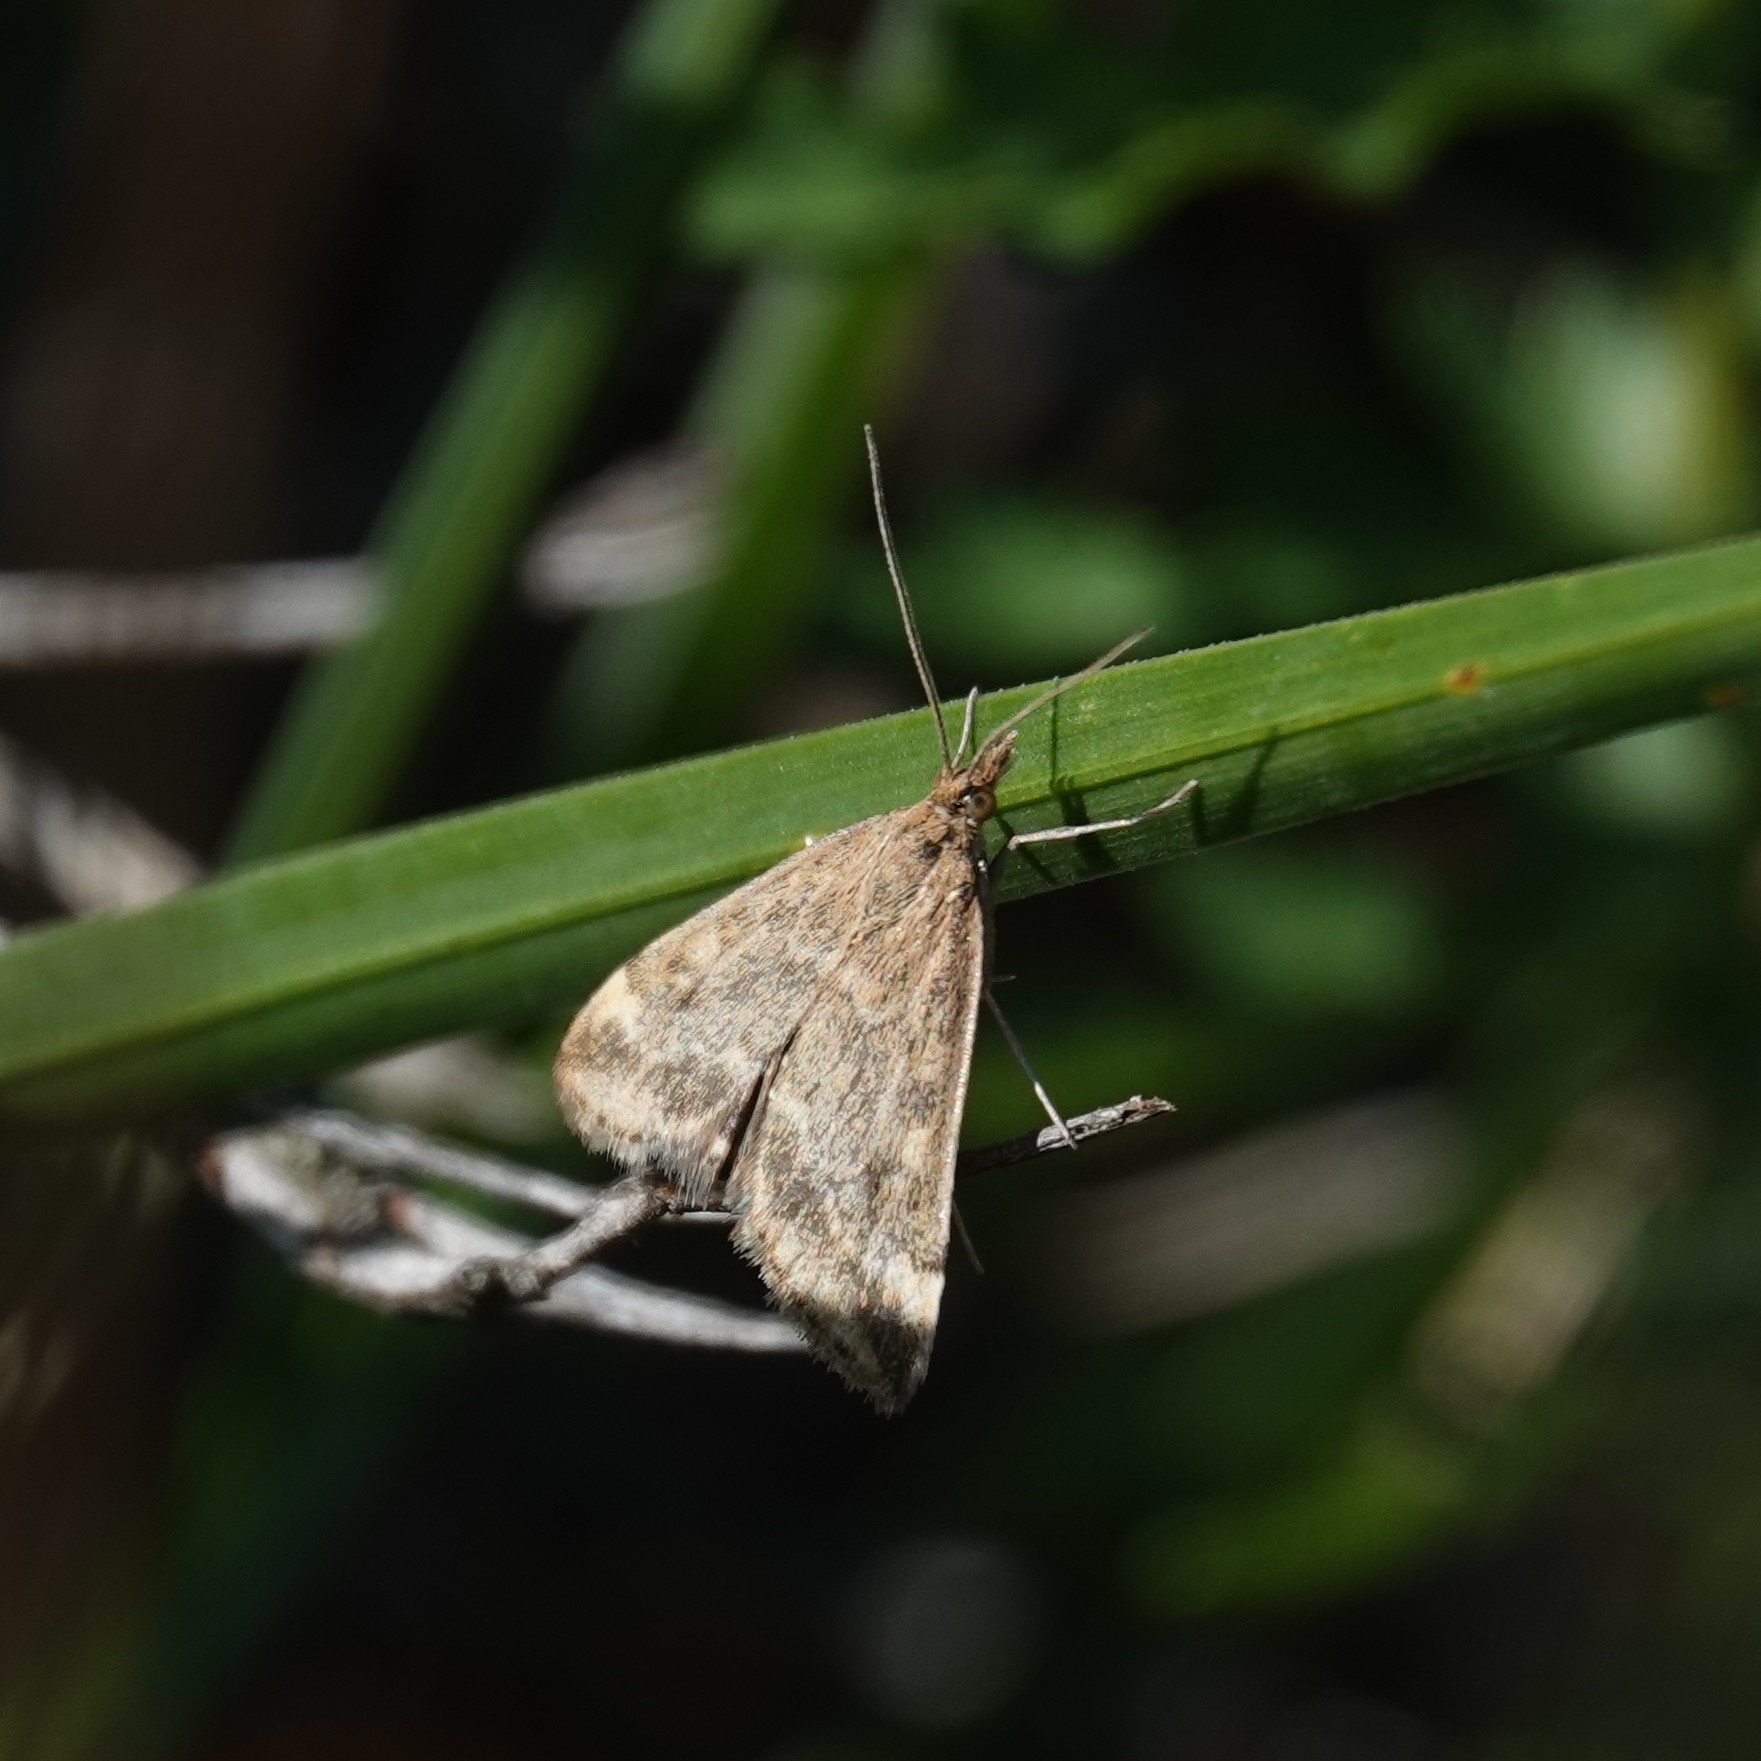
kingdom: Animalia
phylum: Arthropoda
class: Insecta
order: Lepidoptera
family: Crambidae
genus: Pyrausta
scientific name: Pyrausta despicata
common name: Straw-barred pearl
